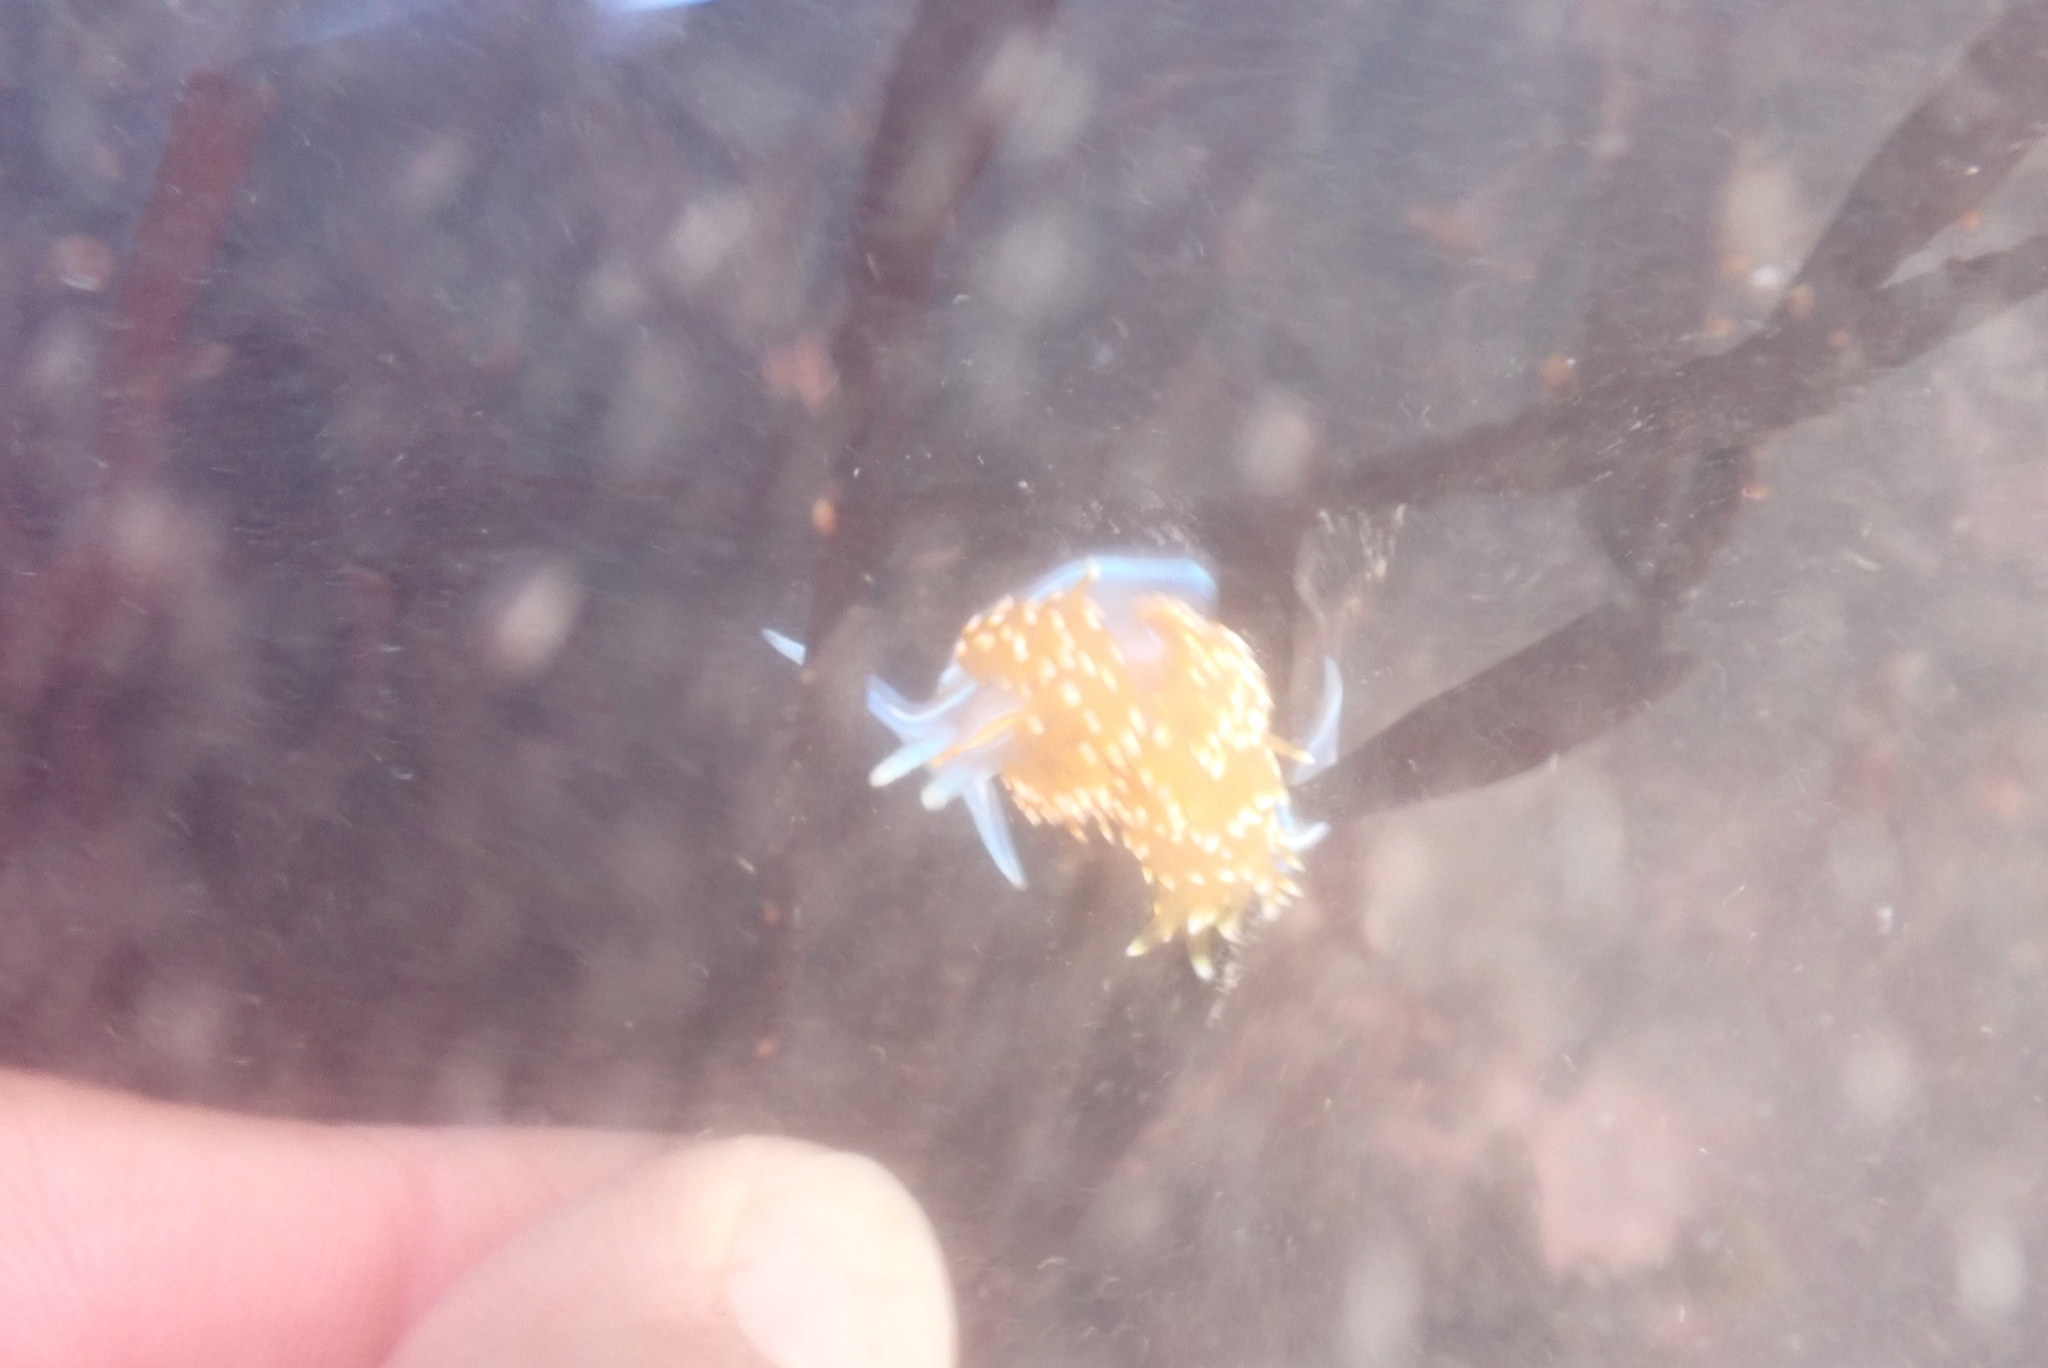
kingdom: Animalia
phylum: Mollusca
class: Gastropoda
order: Nudibranchia
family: Myrrhinidae
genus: Hermissenda
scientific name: Hermissenda opalescens
